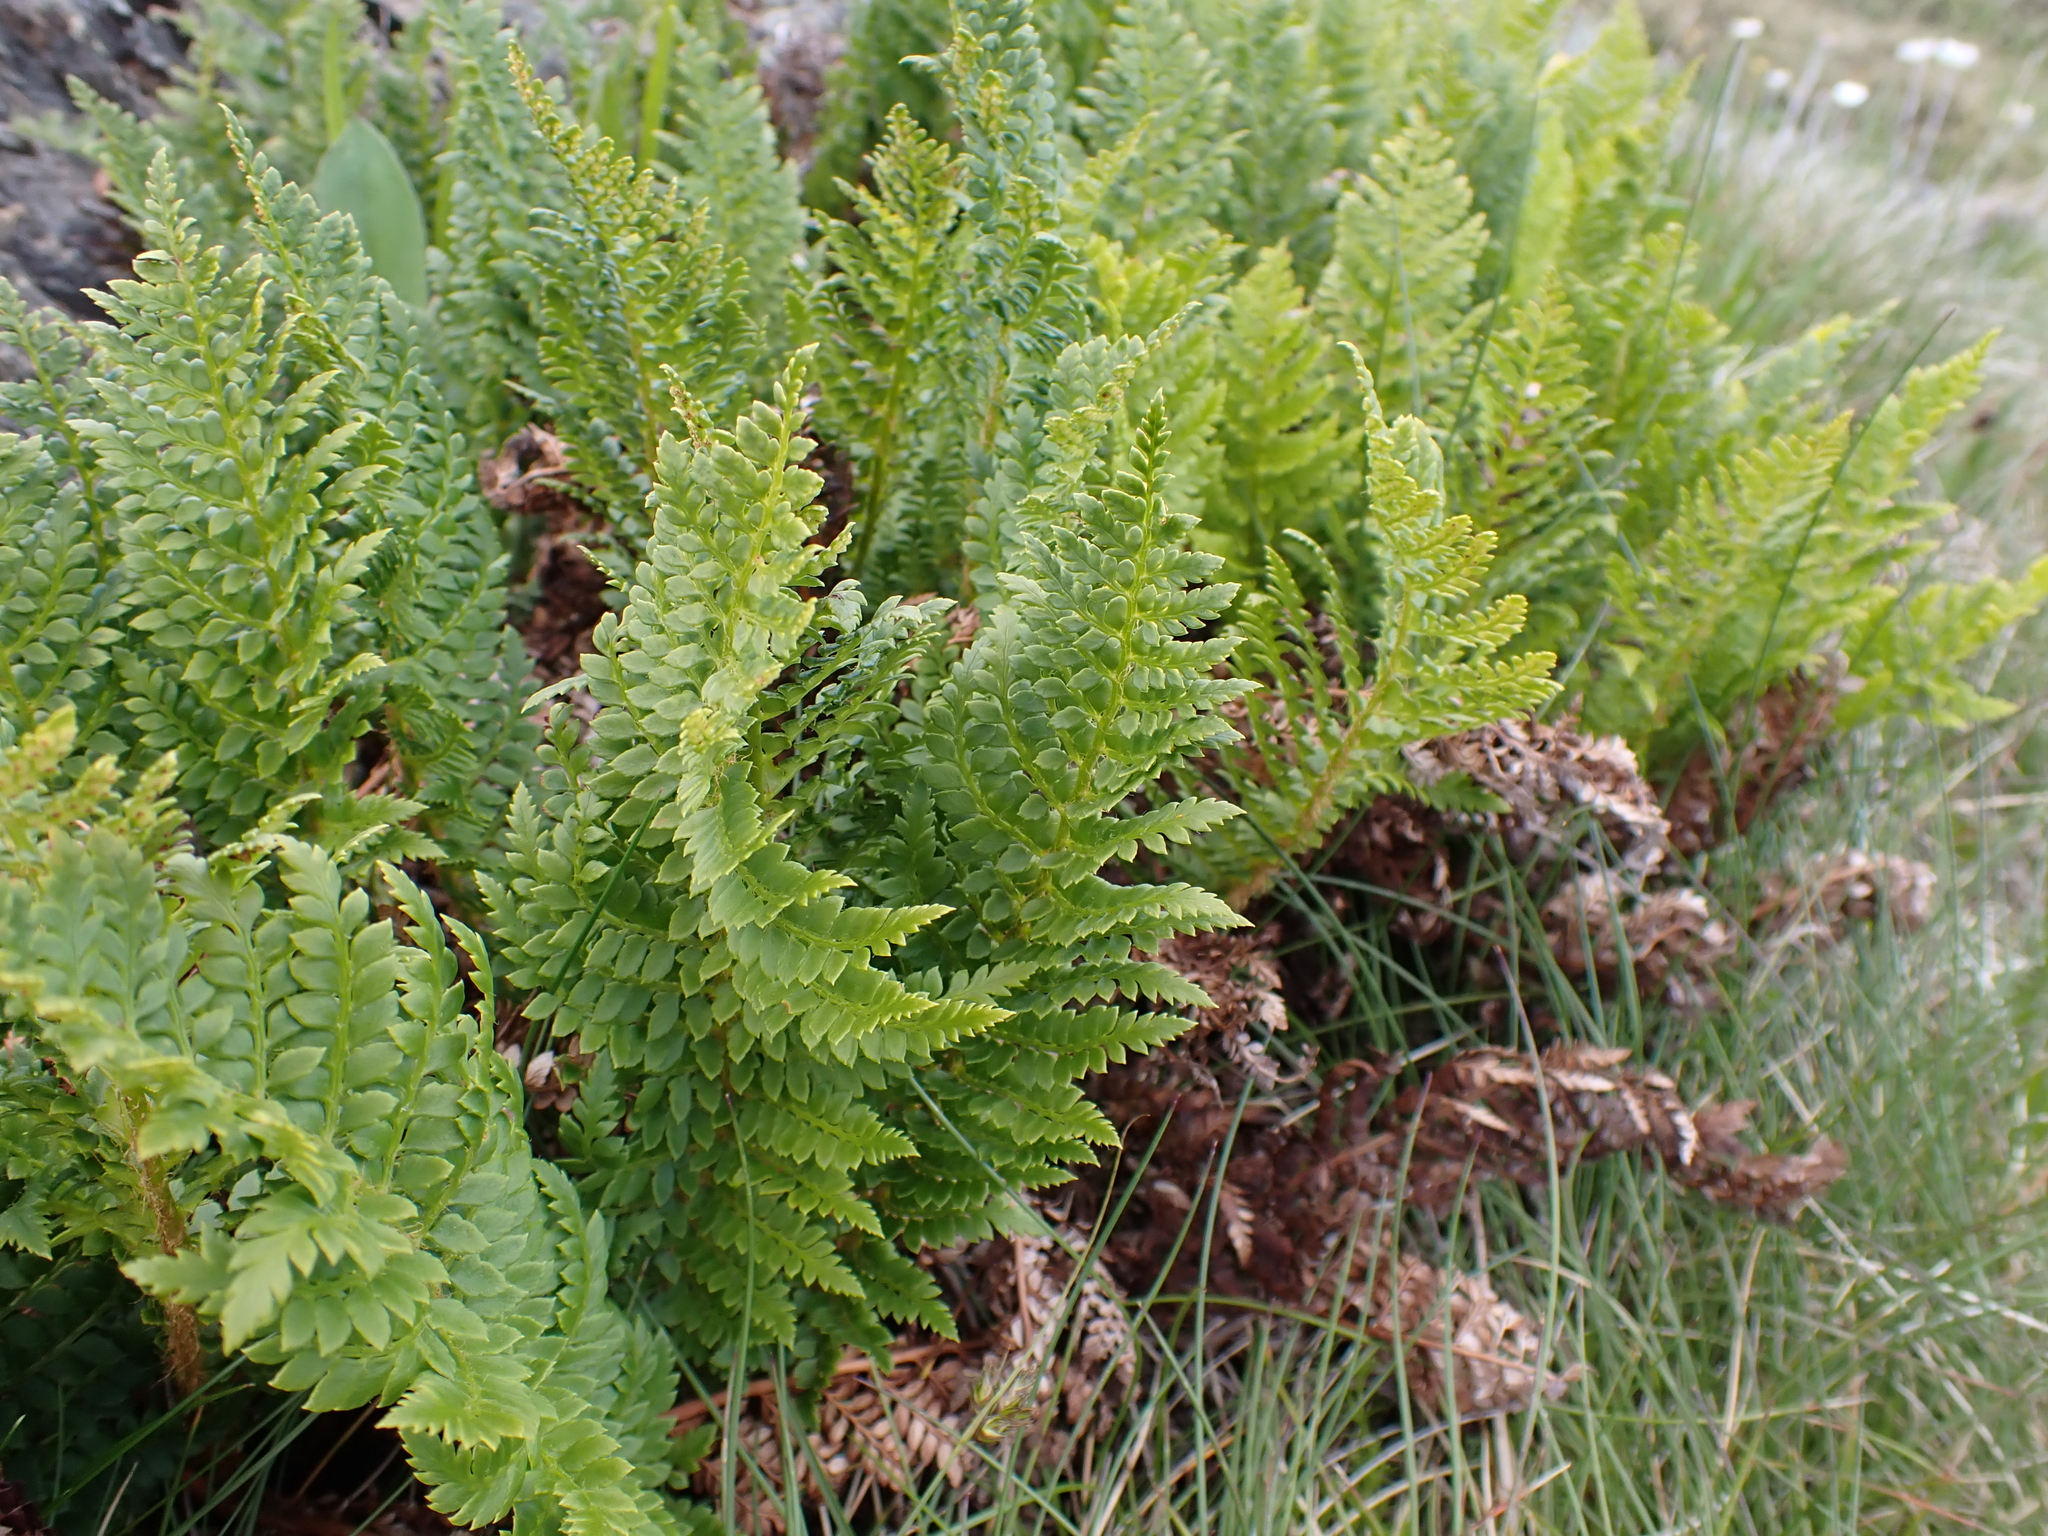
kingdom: Plantae
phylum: Tracheophyta
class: Polypodiopsida
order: Polypodiales
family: Dryopteridaceae
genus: Polystichum
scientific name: Polystichum proliferum
